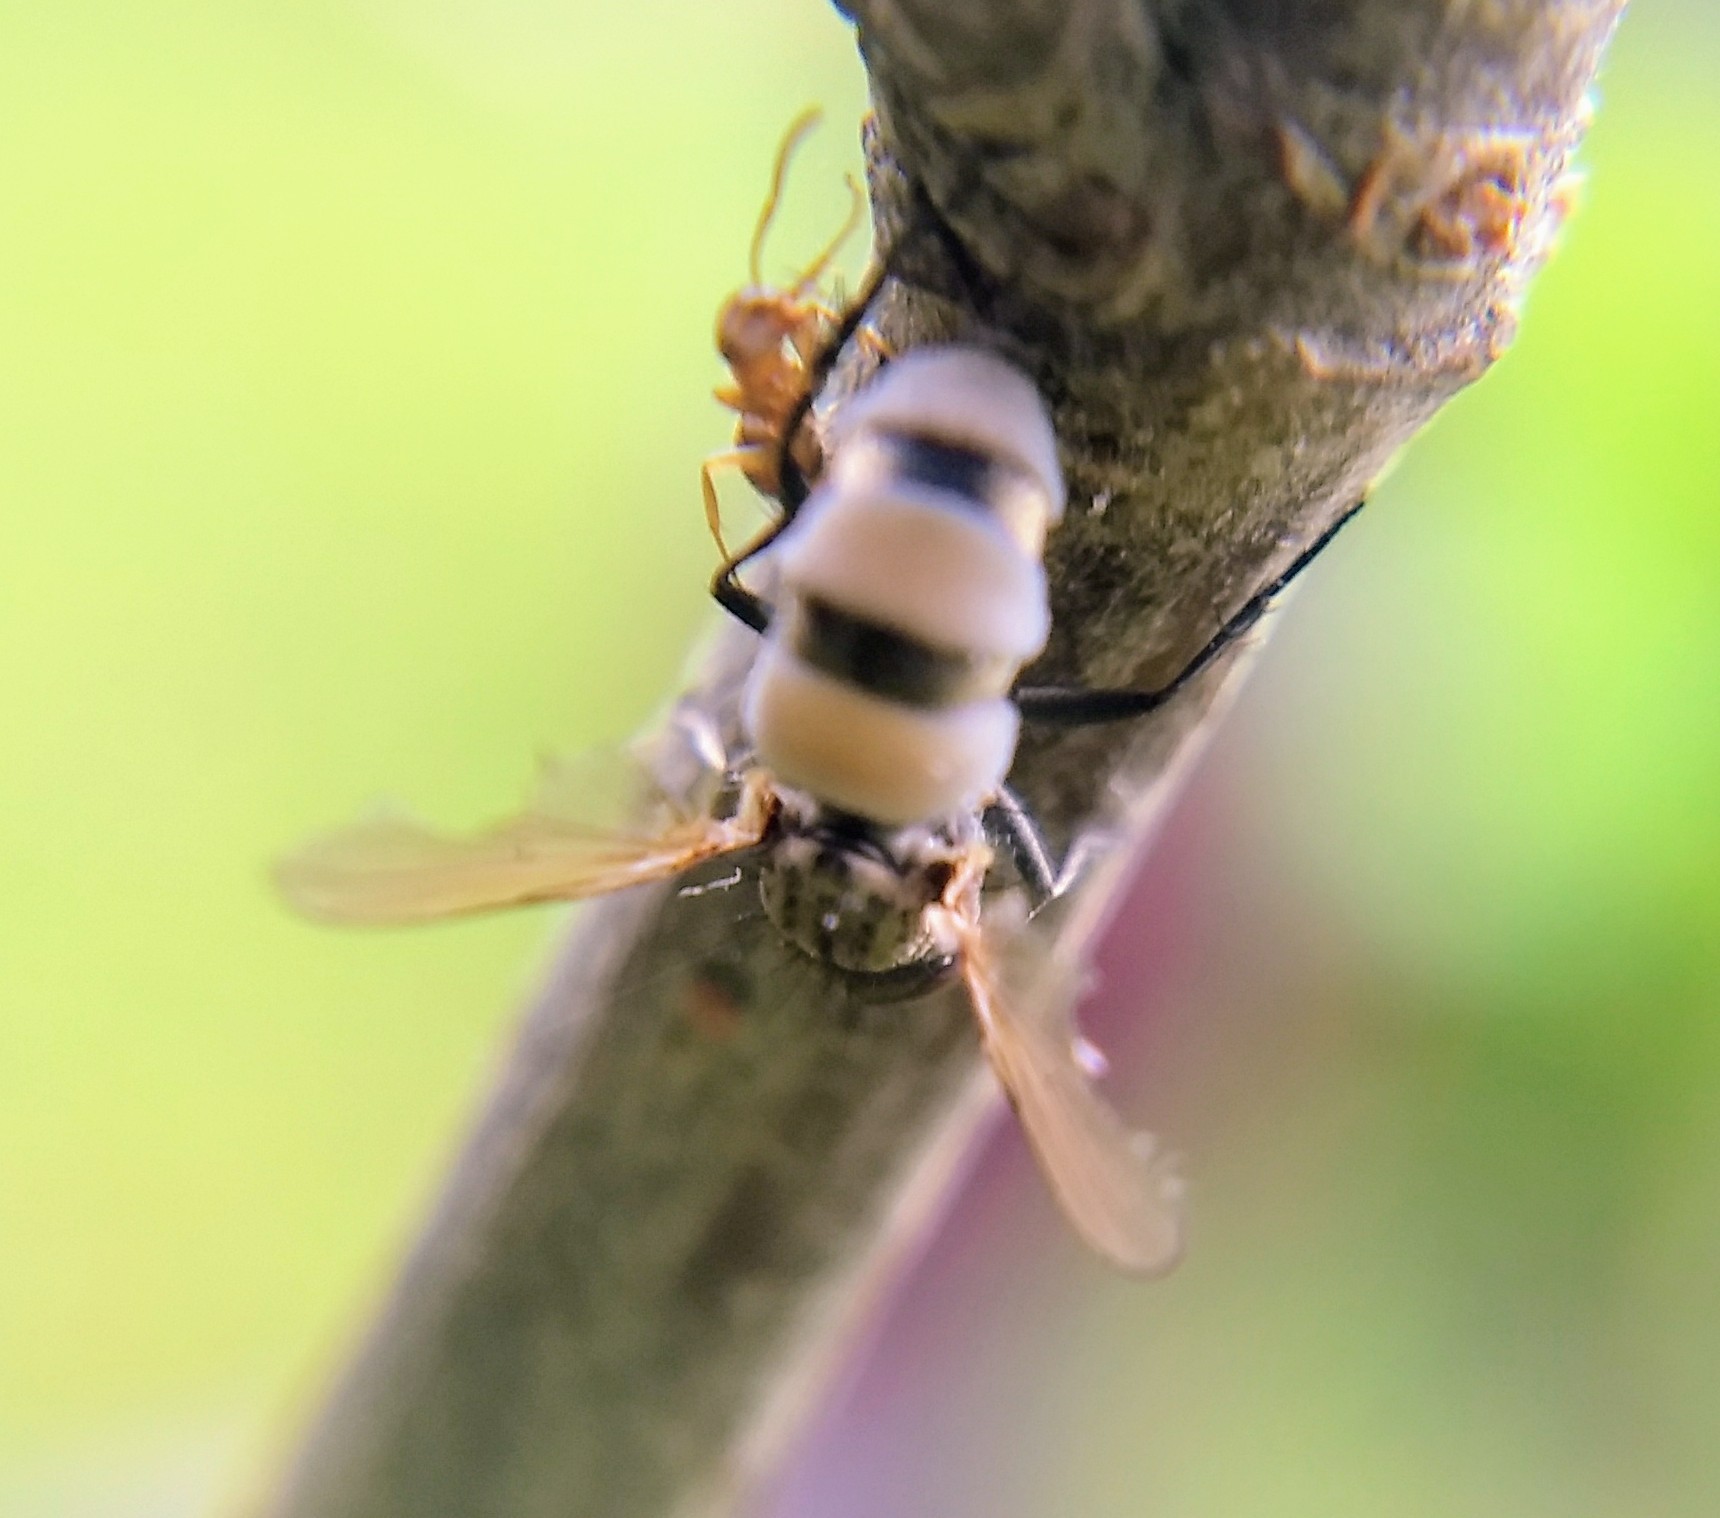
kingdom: Fungi
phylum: Entomophthoromycota
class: Entomophthoromycetes
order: Entomophthorales
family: Entomophthoraceae
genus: Entomophthora
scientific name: Entomophthora
